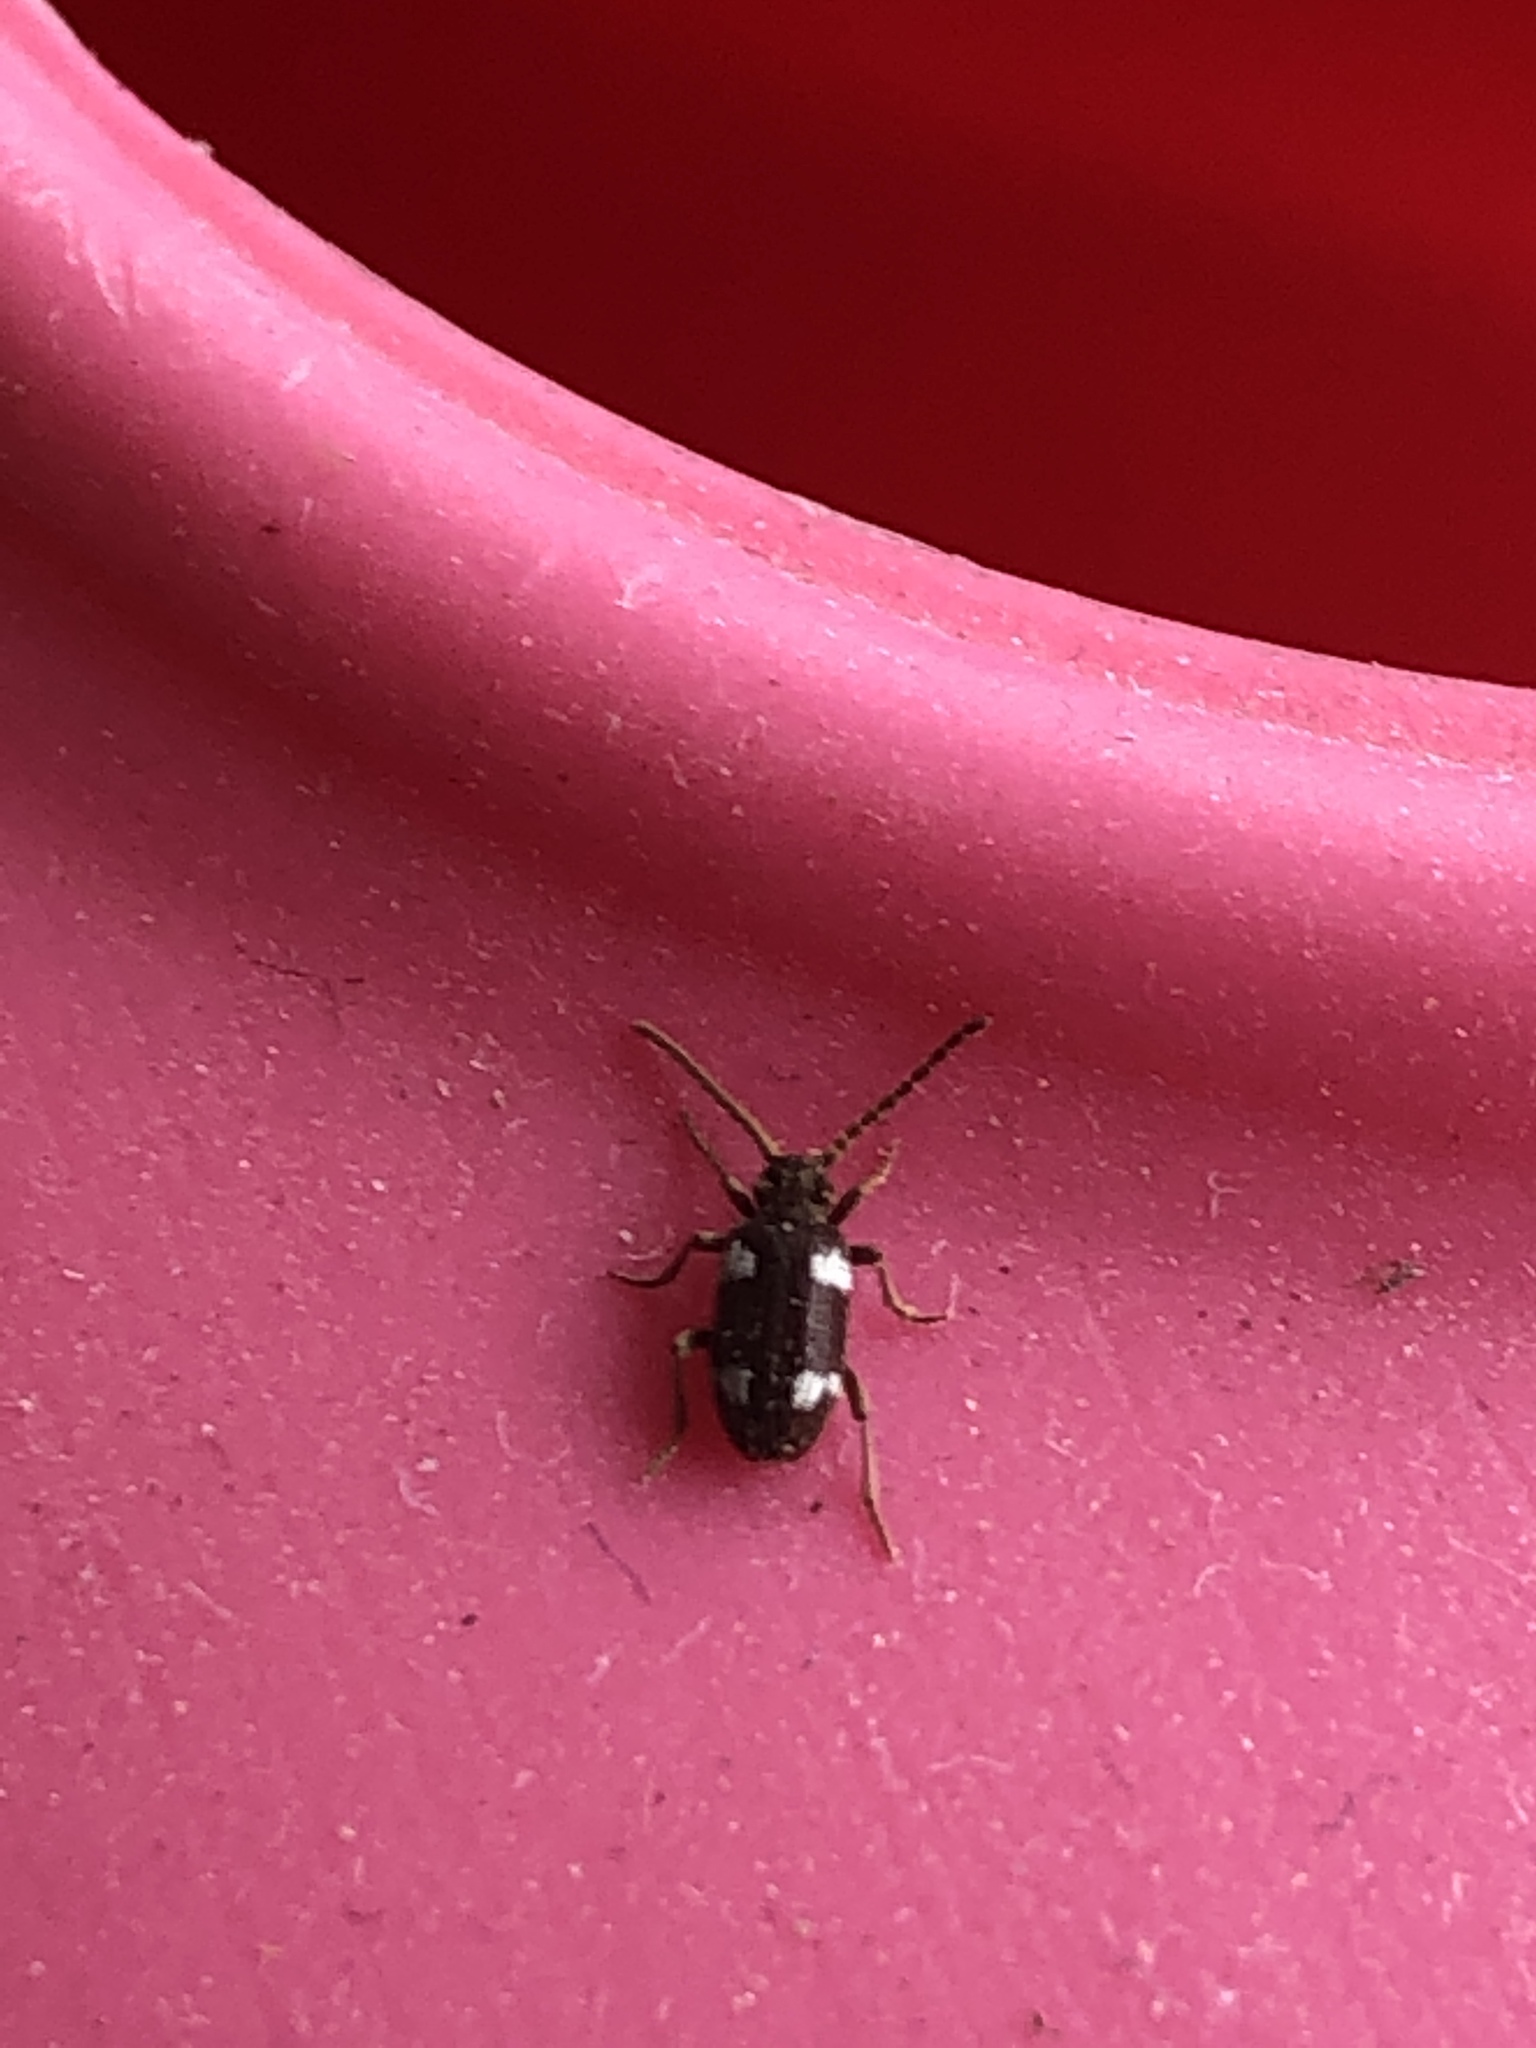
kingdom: Animalia
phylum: Arthropoda
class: Insecta
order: Coleoptera
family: Ptinidae
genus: Ptinus
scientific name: Ptinus sexpunctatus
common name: Six-spotted spider beetle
